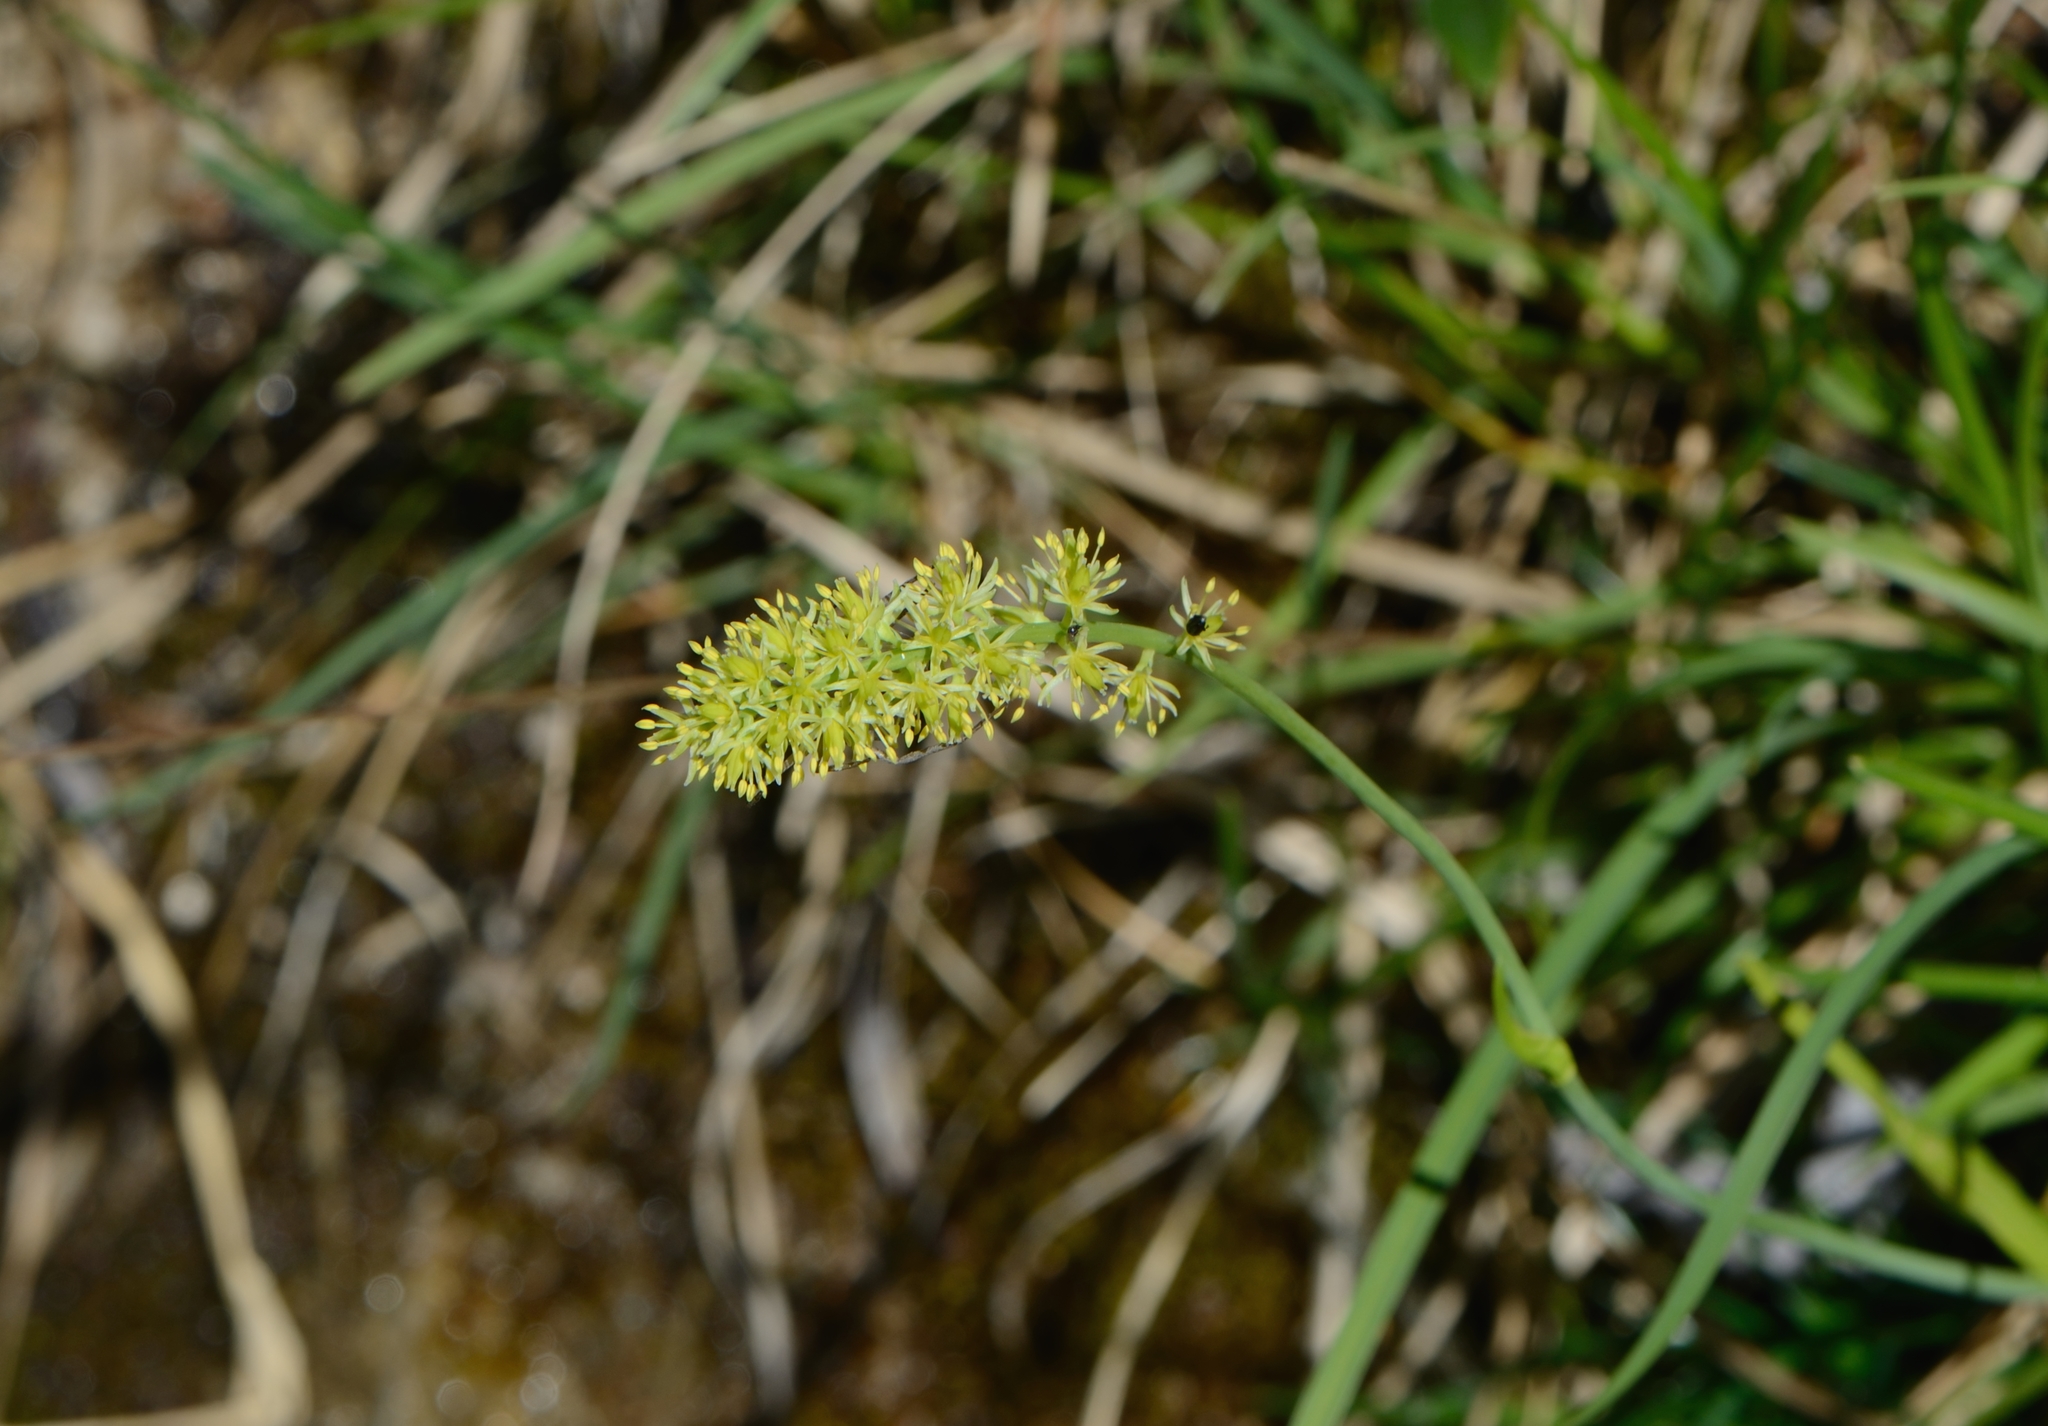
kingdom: Plantae
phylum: Tracheophyta
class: Liliopsida
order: Alismatales
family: Tofieldiaceae
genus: Tofieldia
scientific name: Tofieldia calyculata
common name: German-asphodel
